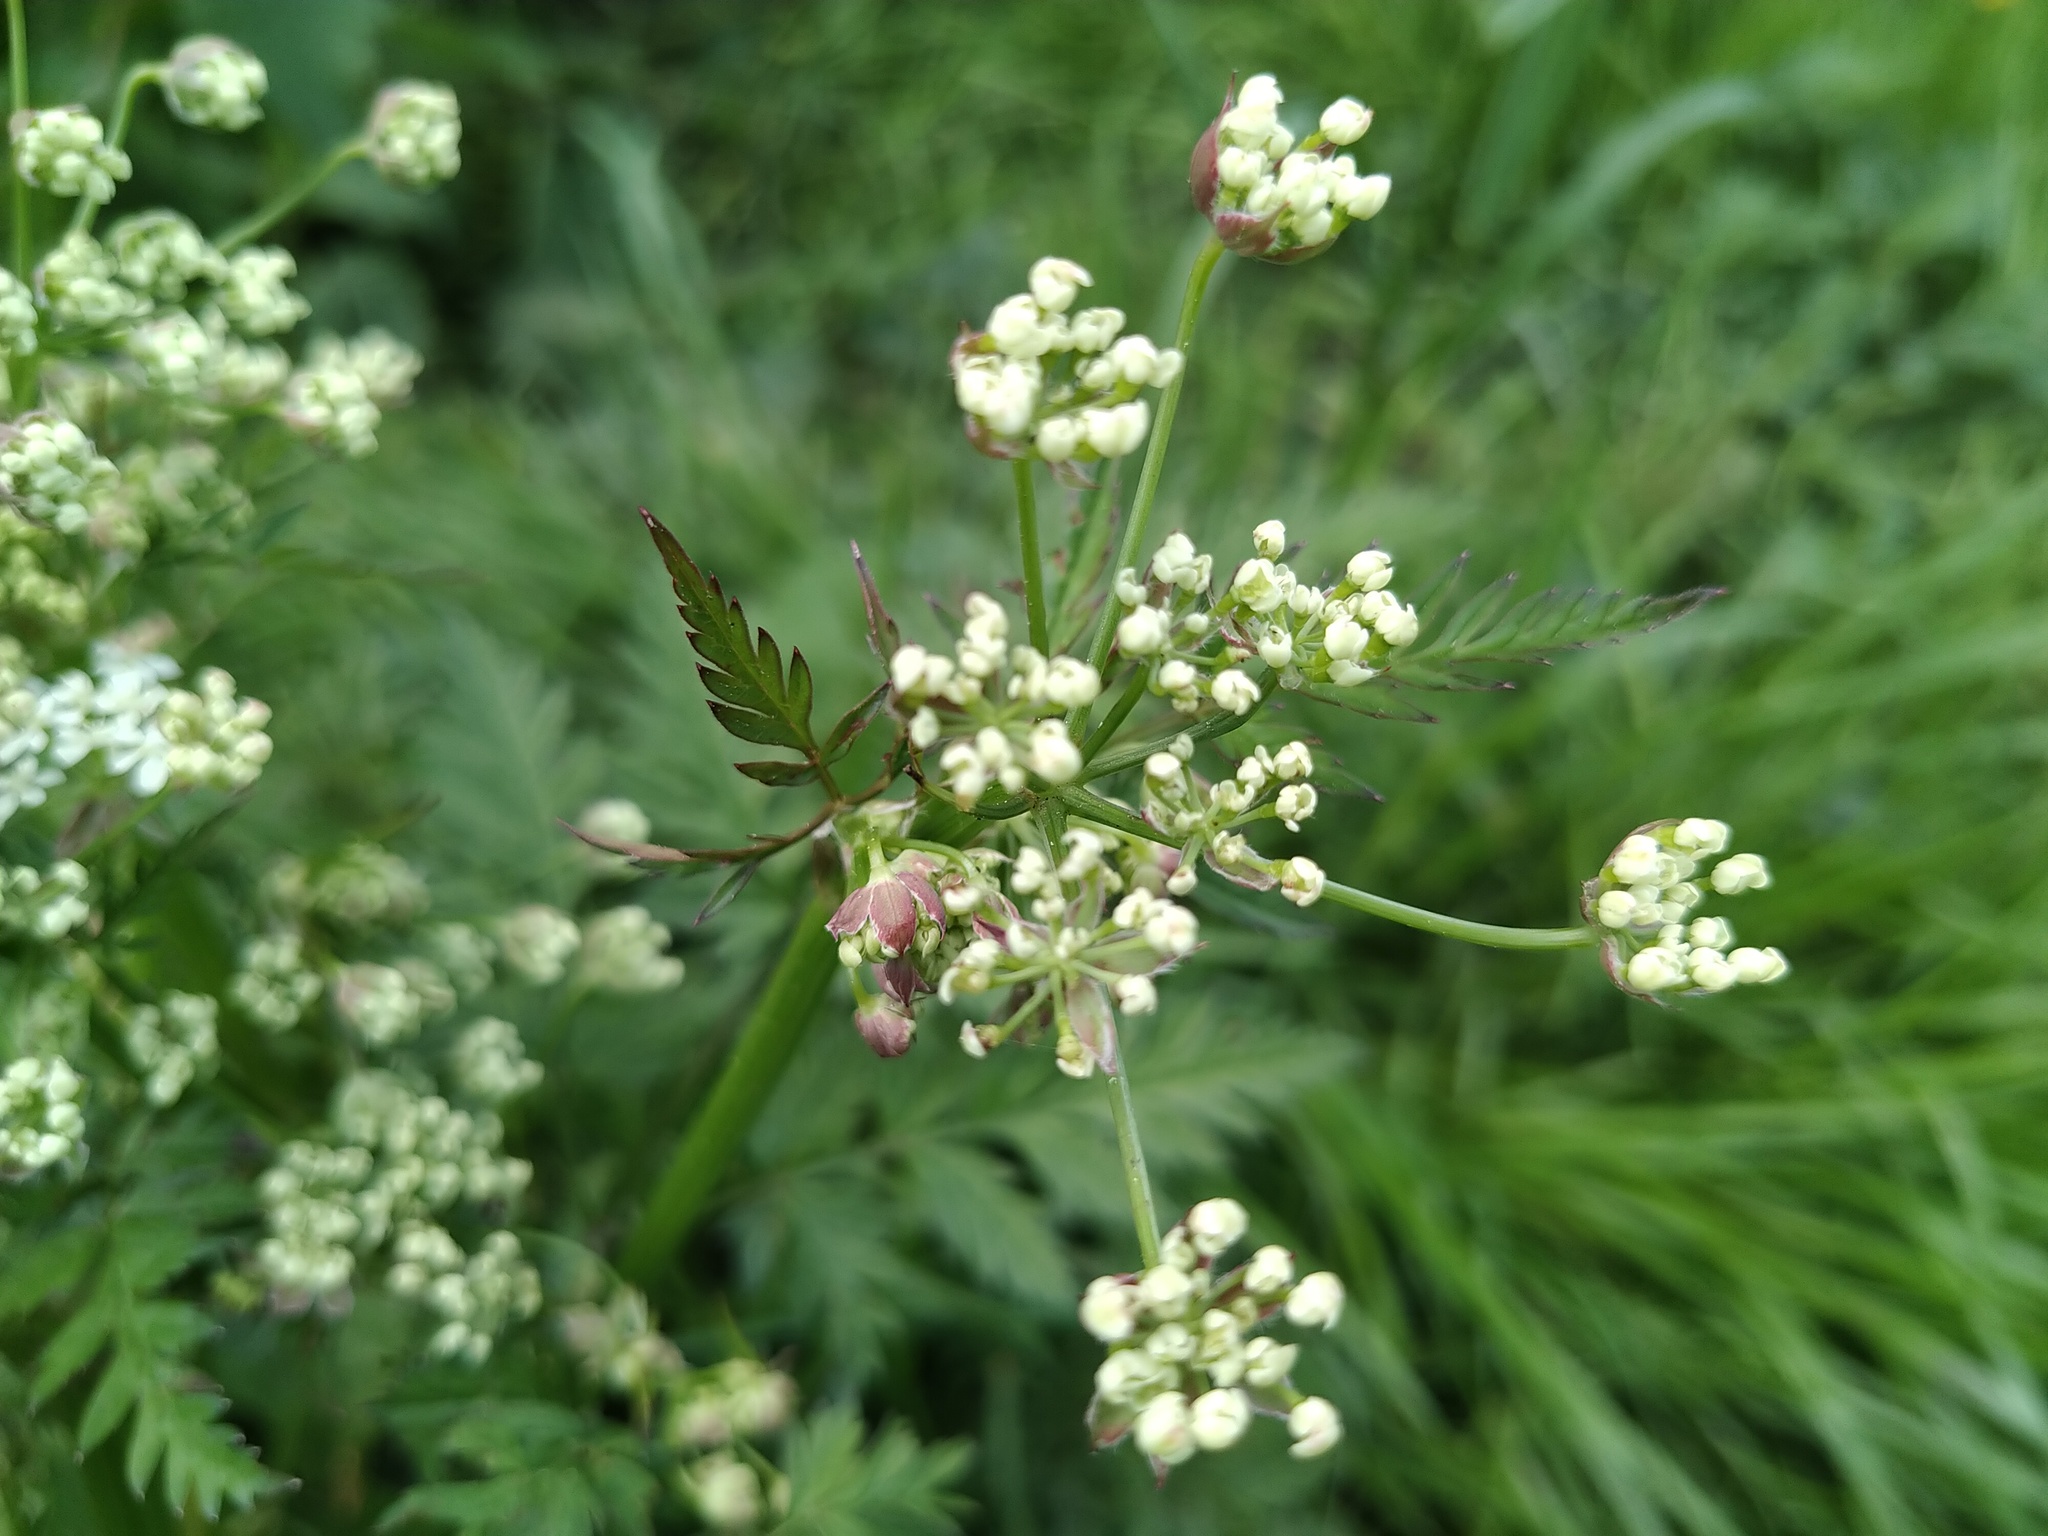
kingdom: Plantae
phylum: Tracheophyta
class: Magnoliopsida
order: Apiales
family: Apiaceae
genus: Anthriscus
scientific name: Anthriscus sylvestris
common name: Cow parsley
